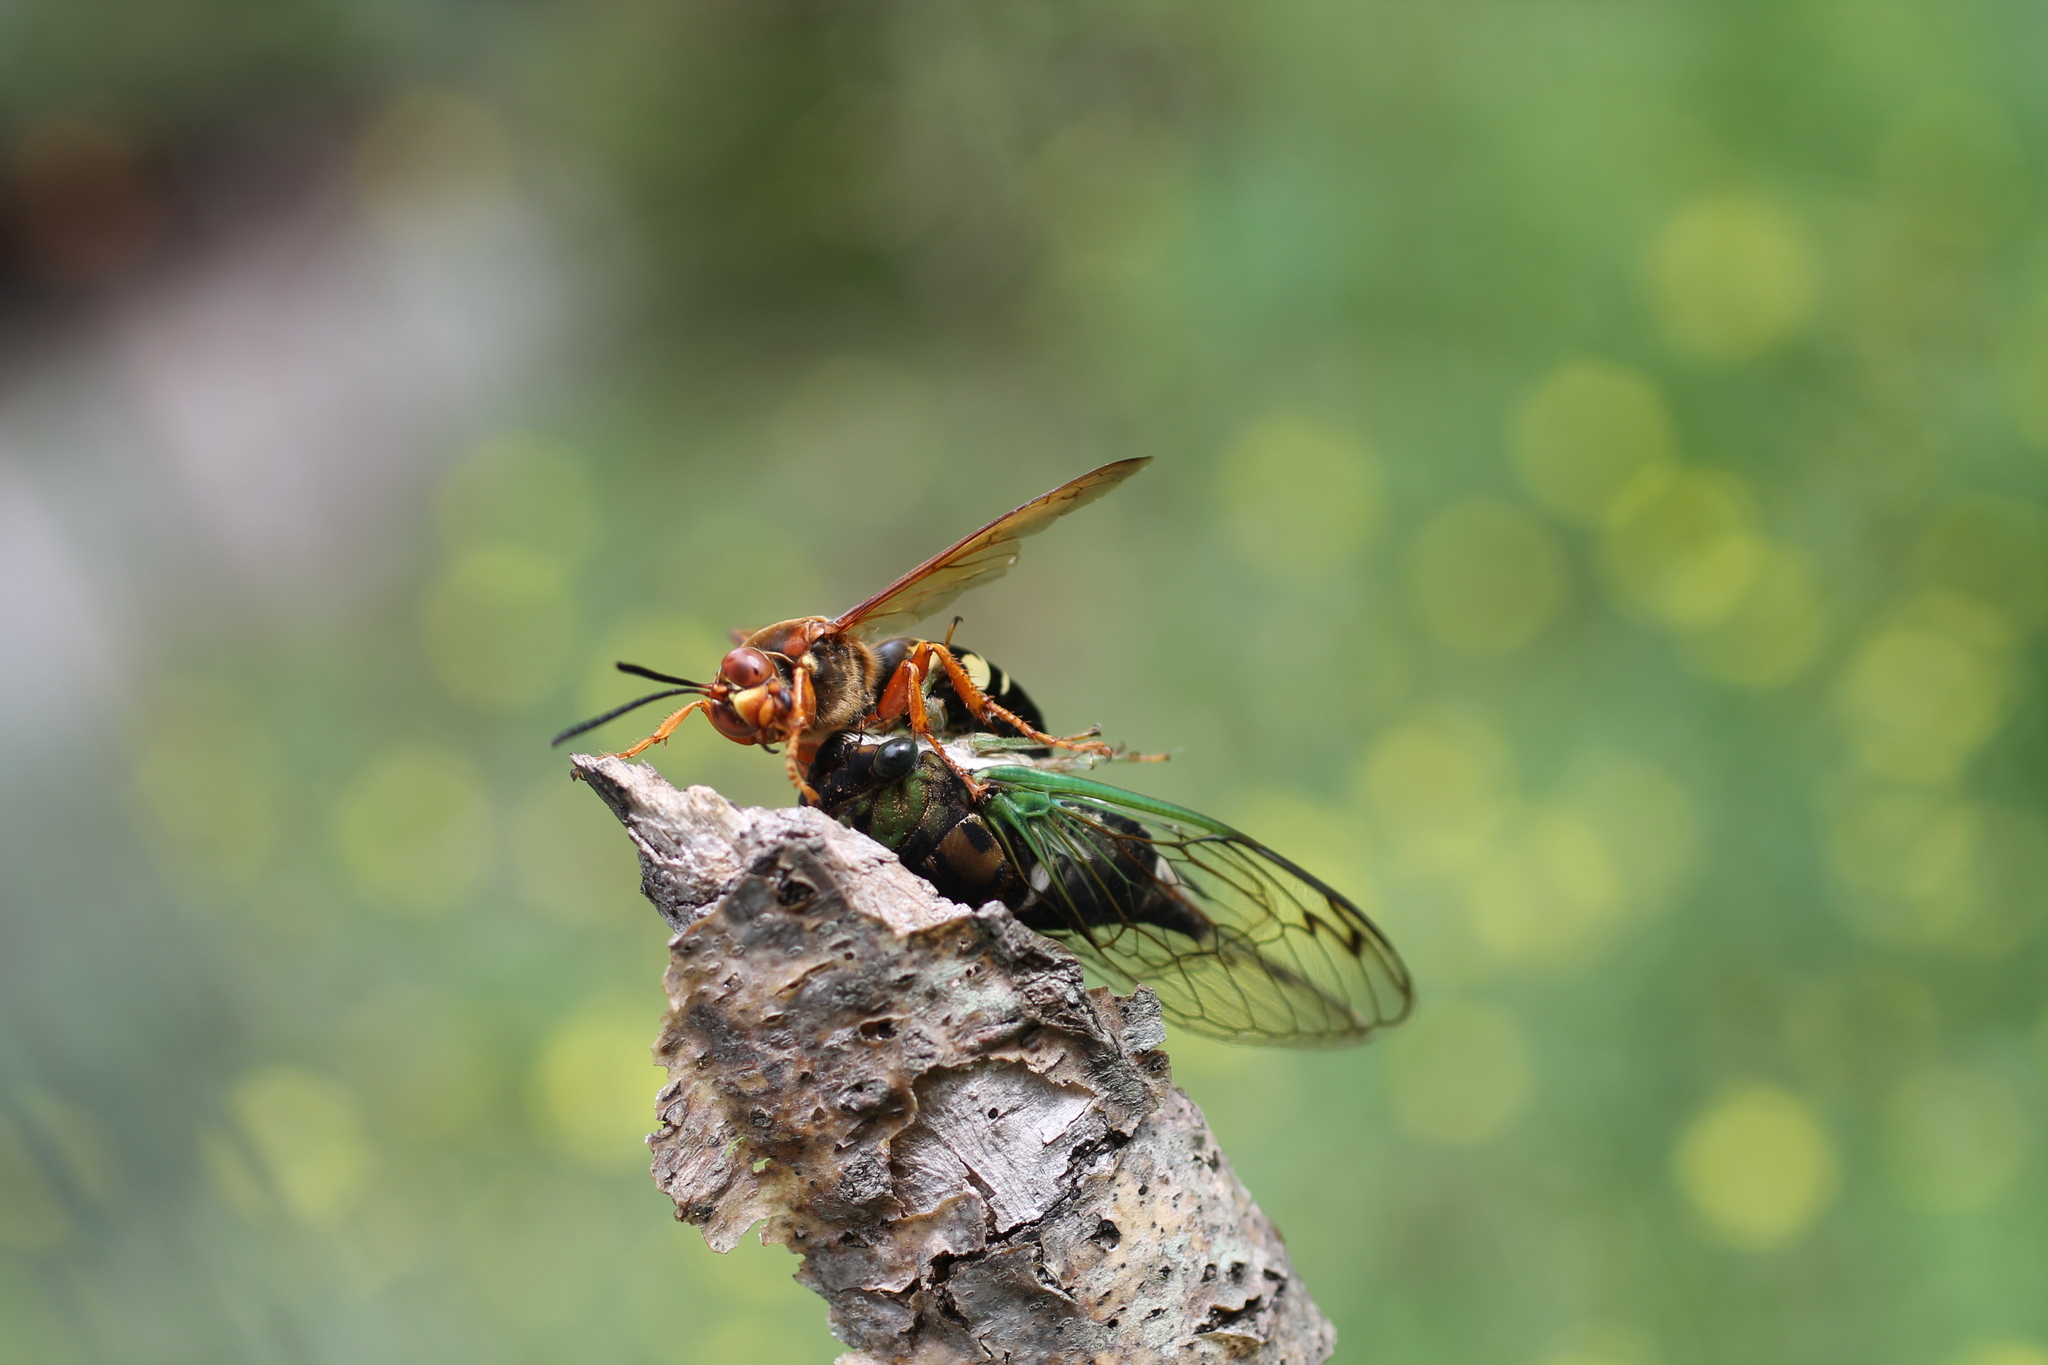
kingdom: Animalia
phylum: Arthropoda
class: Insecta
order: Hymenoptera
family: Crabronidae
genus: Sphecius
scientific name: Sphecius speciosus
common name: Cicada killer
